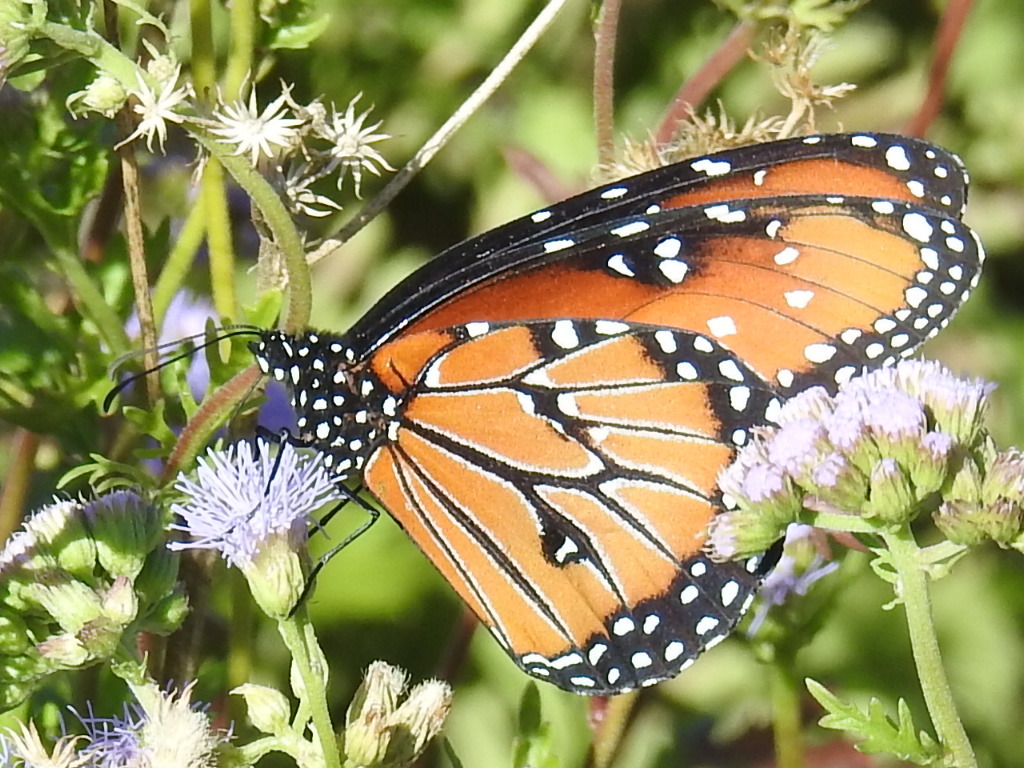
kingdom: Animalia
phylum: Arthropoda
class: Insecta
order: Lepidoptera
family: Nymphalidae
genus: Danaus
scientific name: Danaus gilippus
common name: Queen
